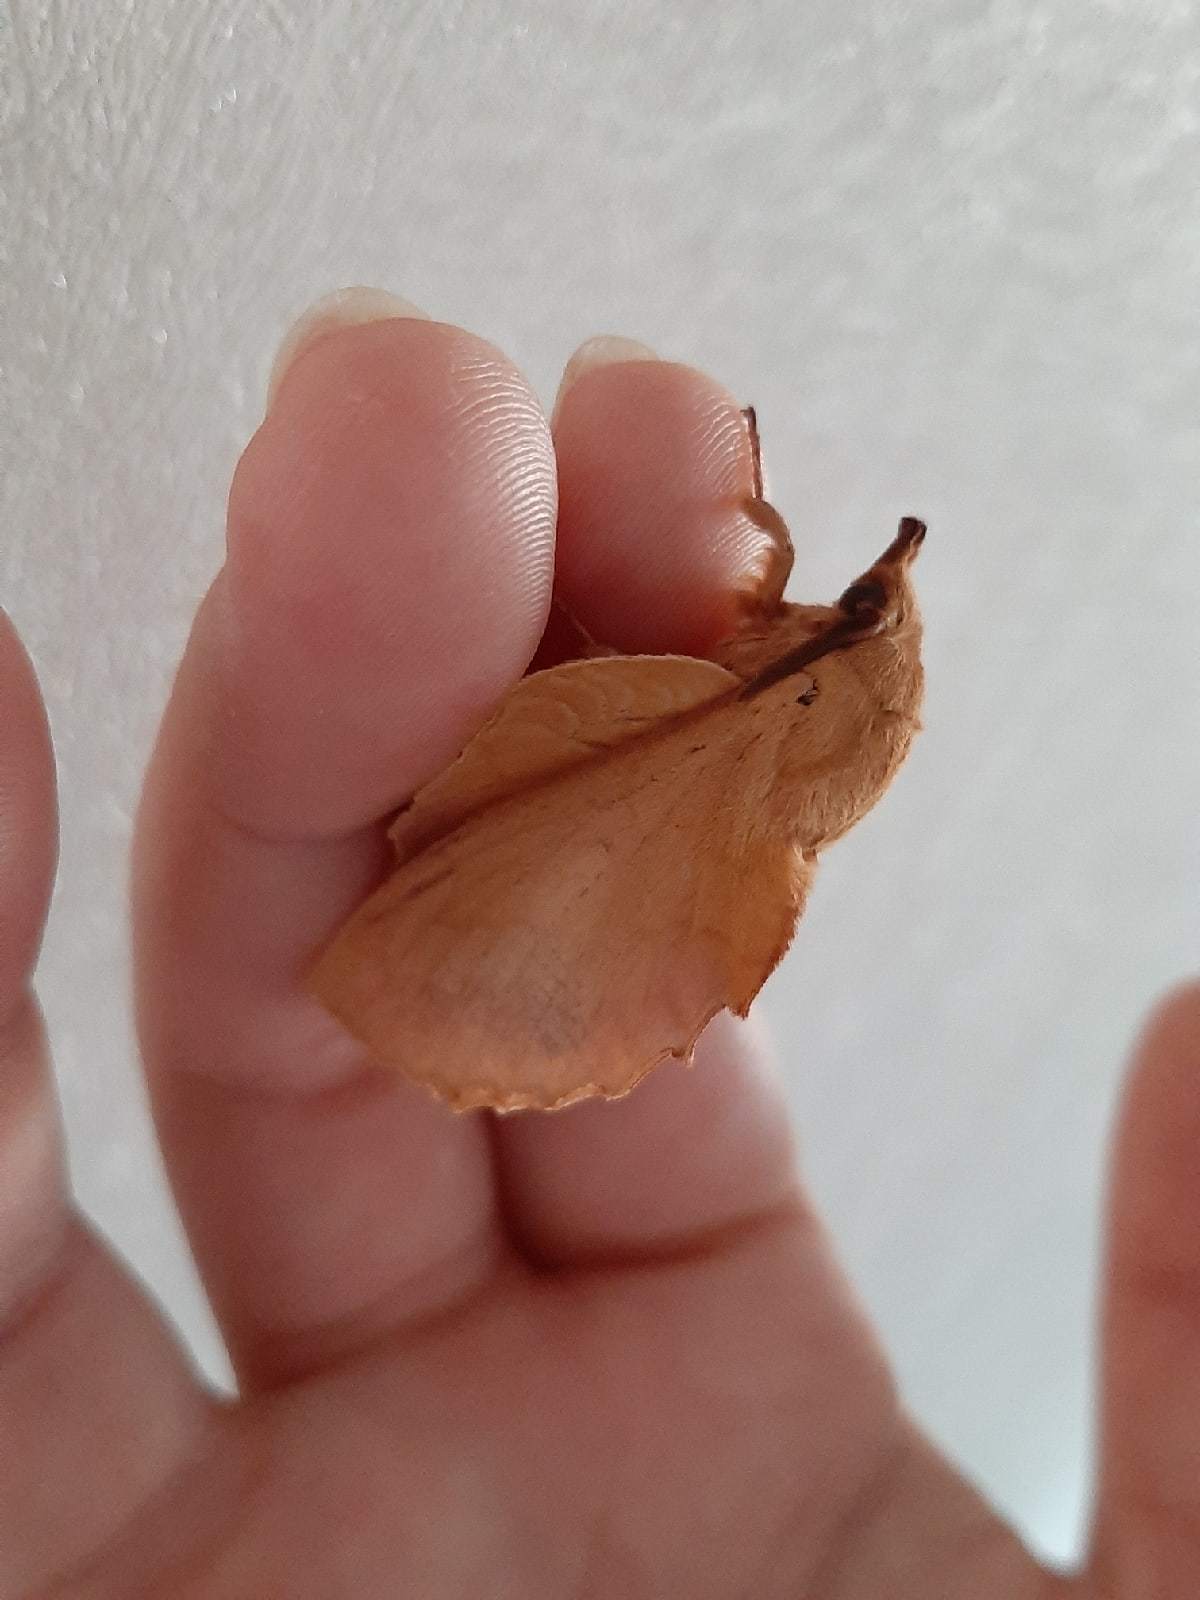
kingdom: Animalia
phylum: Arthropoda
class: Insecta
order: Lepidoptera
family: Lasiocampidae
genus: Gastropacha
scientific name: Gastropacha quercifolia
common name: Lappet
